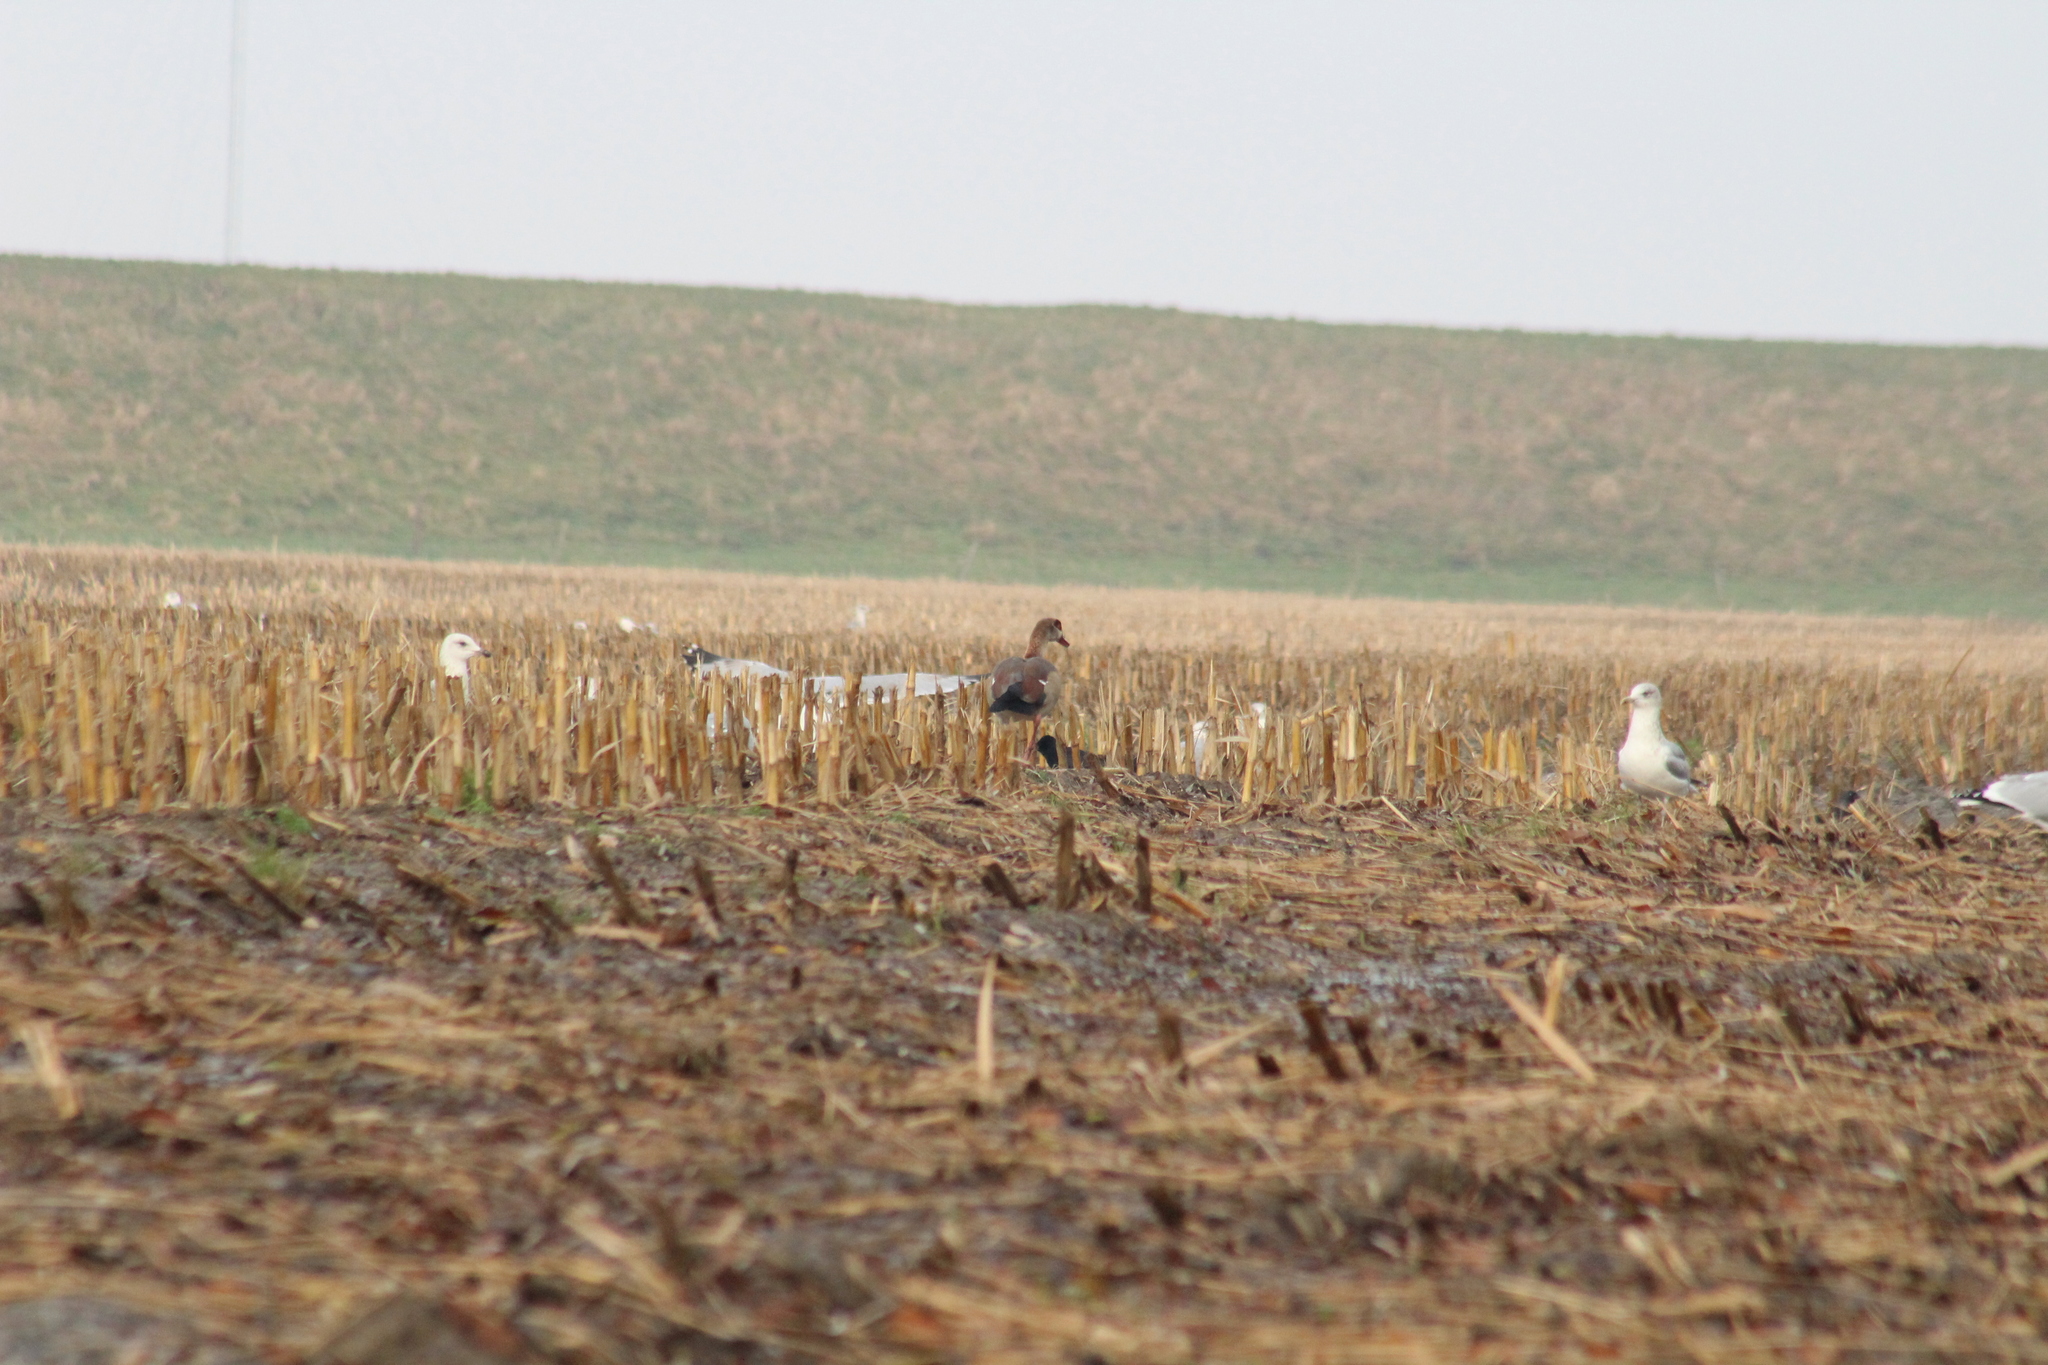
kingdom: Animalia
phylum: Chordata
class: Aves
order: Anseriformes
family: Anatidae
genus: Alopochen
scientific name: Alopochen aegyptiaca
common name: Egyptian goose
